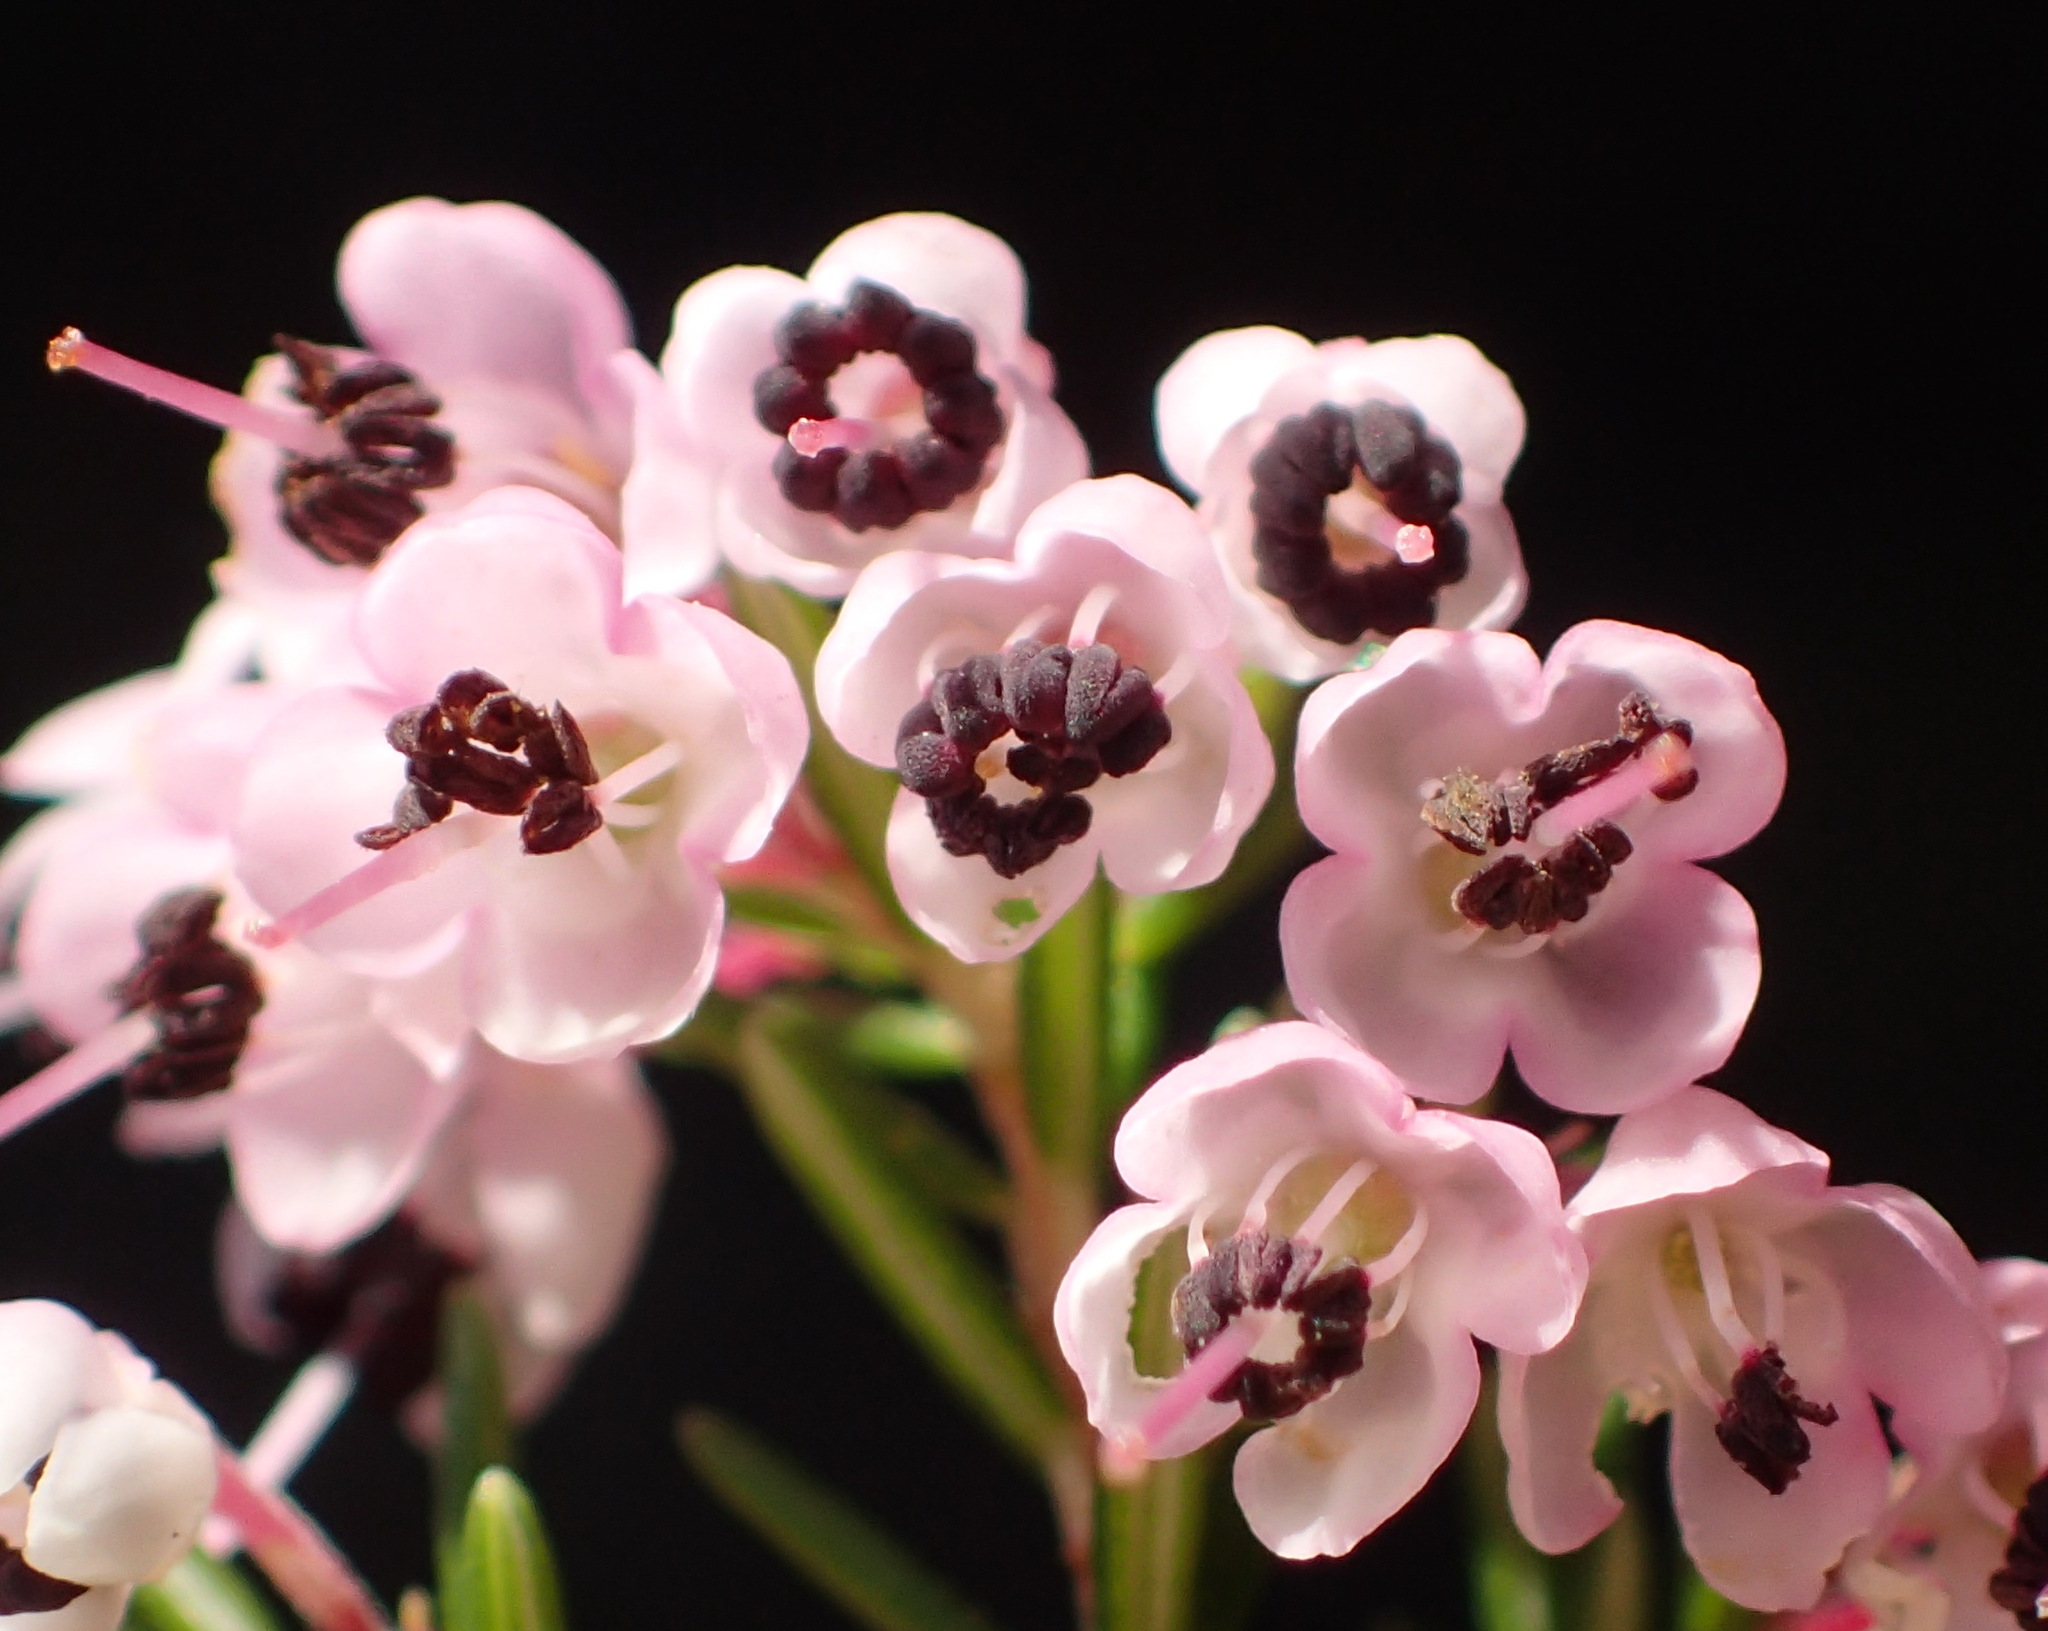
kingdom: Plantae
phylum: Tracheophyta
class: Magnoliopsida
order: Ericales
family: Ericaceae
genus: Erica
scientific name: Erica canaliculata
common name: Hairy grey heather
